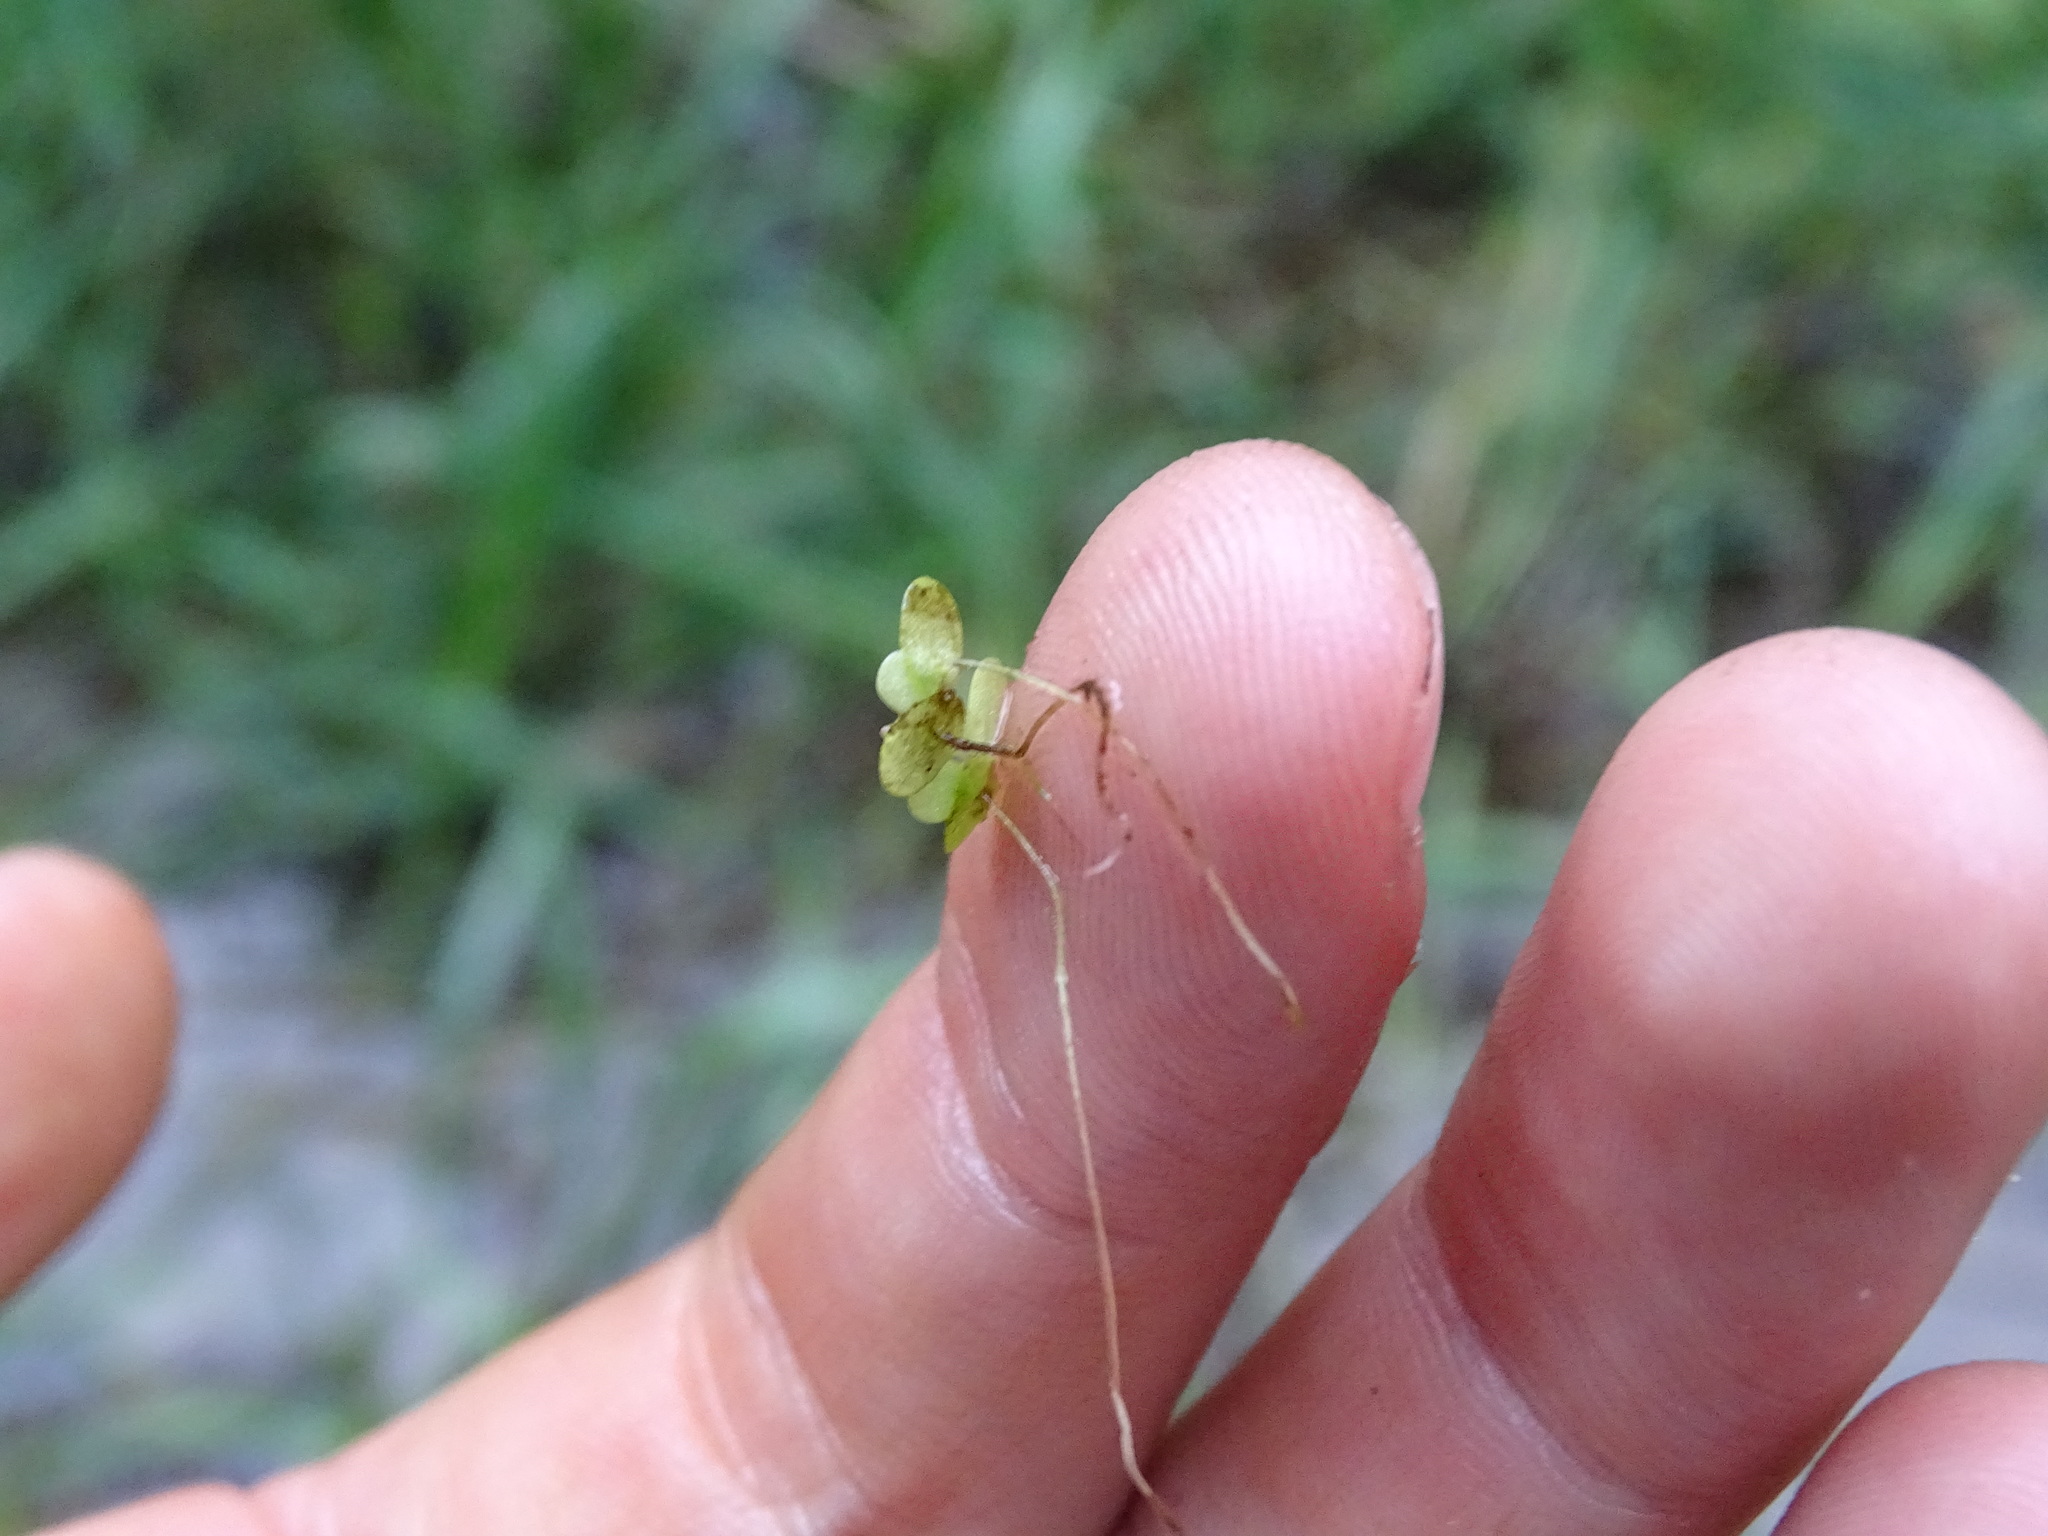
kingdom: Plantae
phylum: Tracheophyta
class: Liliopsida
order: Alismatales
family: Araceae
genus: Lemna
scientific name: Lemna minor
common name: Common duckweed
